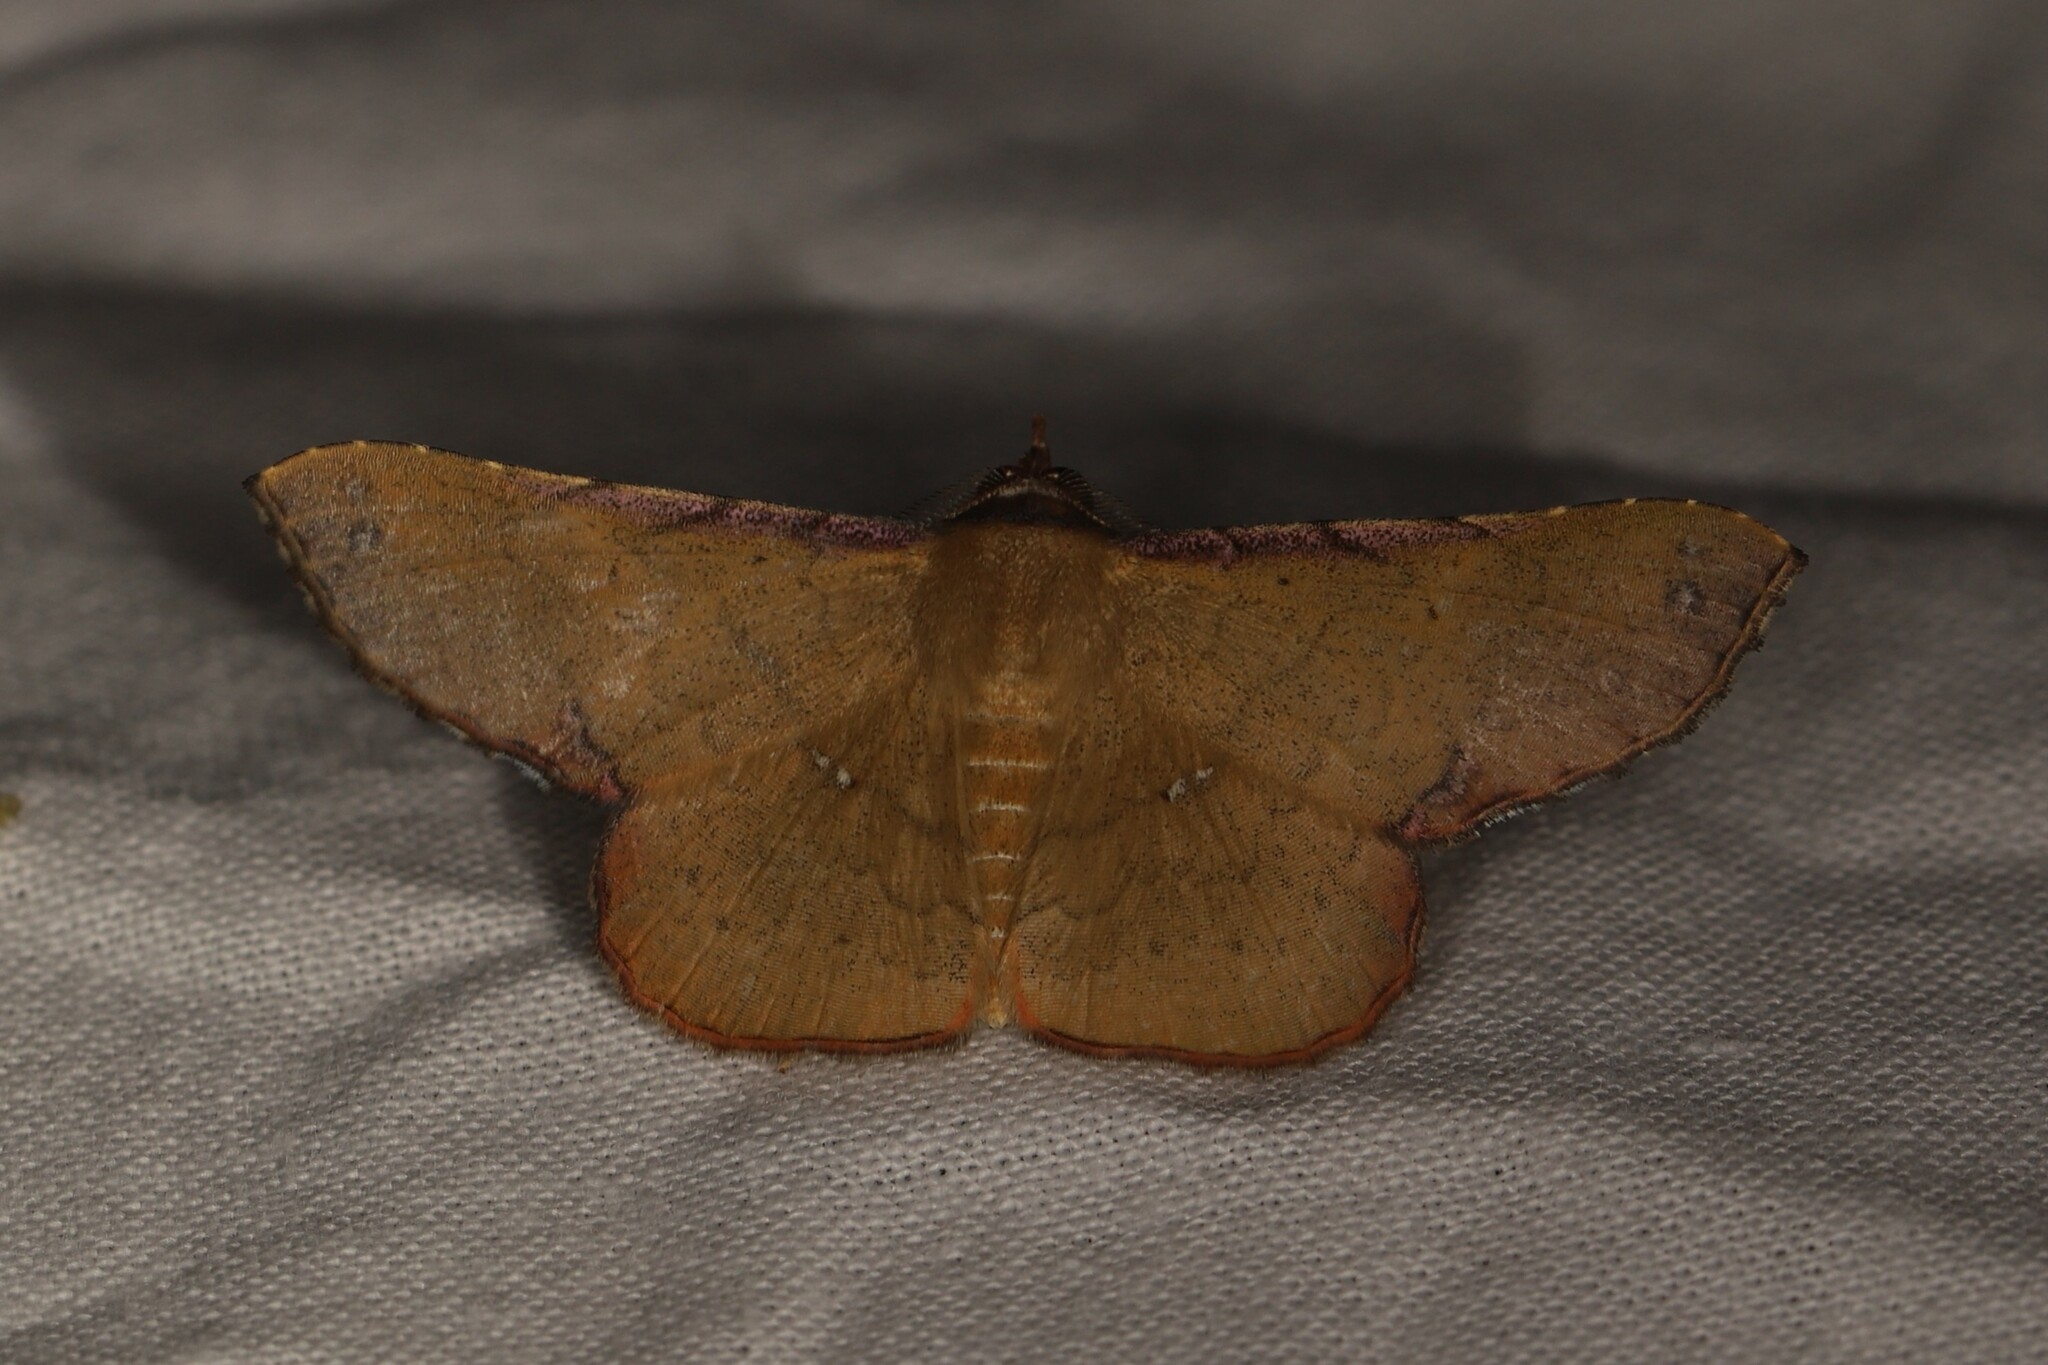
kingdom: Animalia
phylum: Arthropoda
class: Insecta
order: Lepidoptera
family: Erebidae
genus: Cryptochrostis
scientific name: Cryptochrostis suppulchraria
